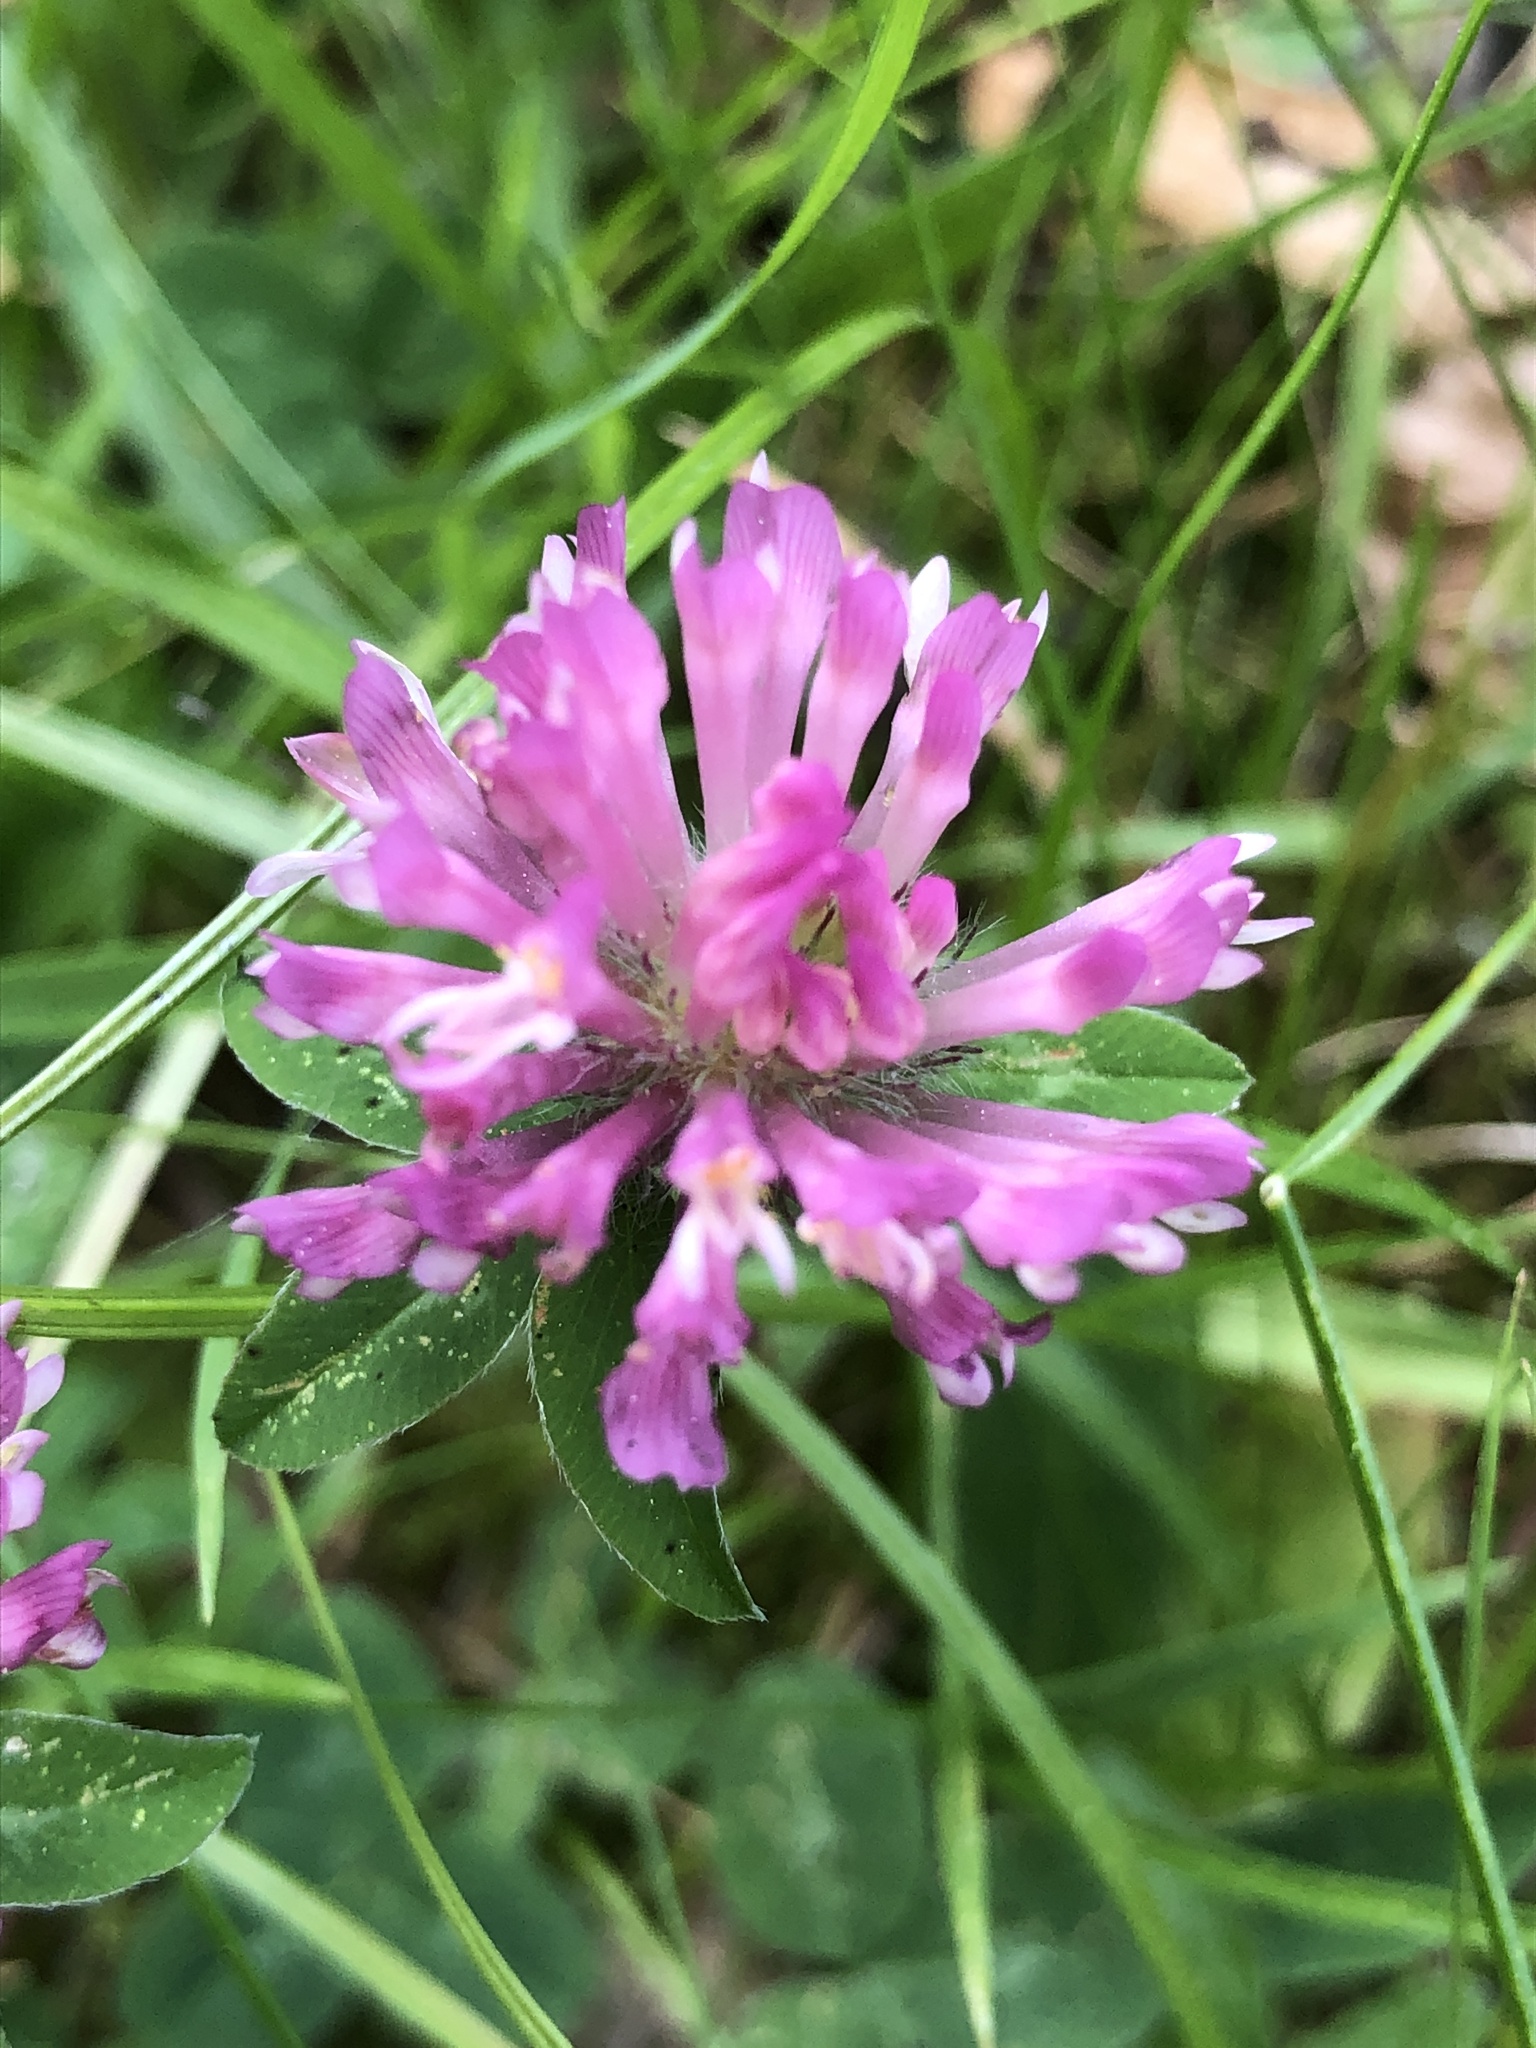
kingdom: Plantae
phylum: Tracheophyta
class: Magnoliopsida
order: Fabales
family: Fabaceae
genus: Trifolium
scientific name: Trifolium pratense
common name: Red clover
